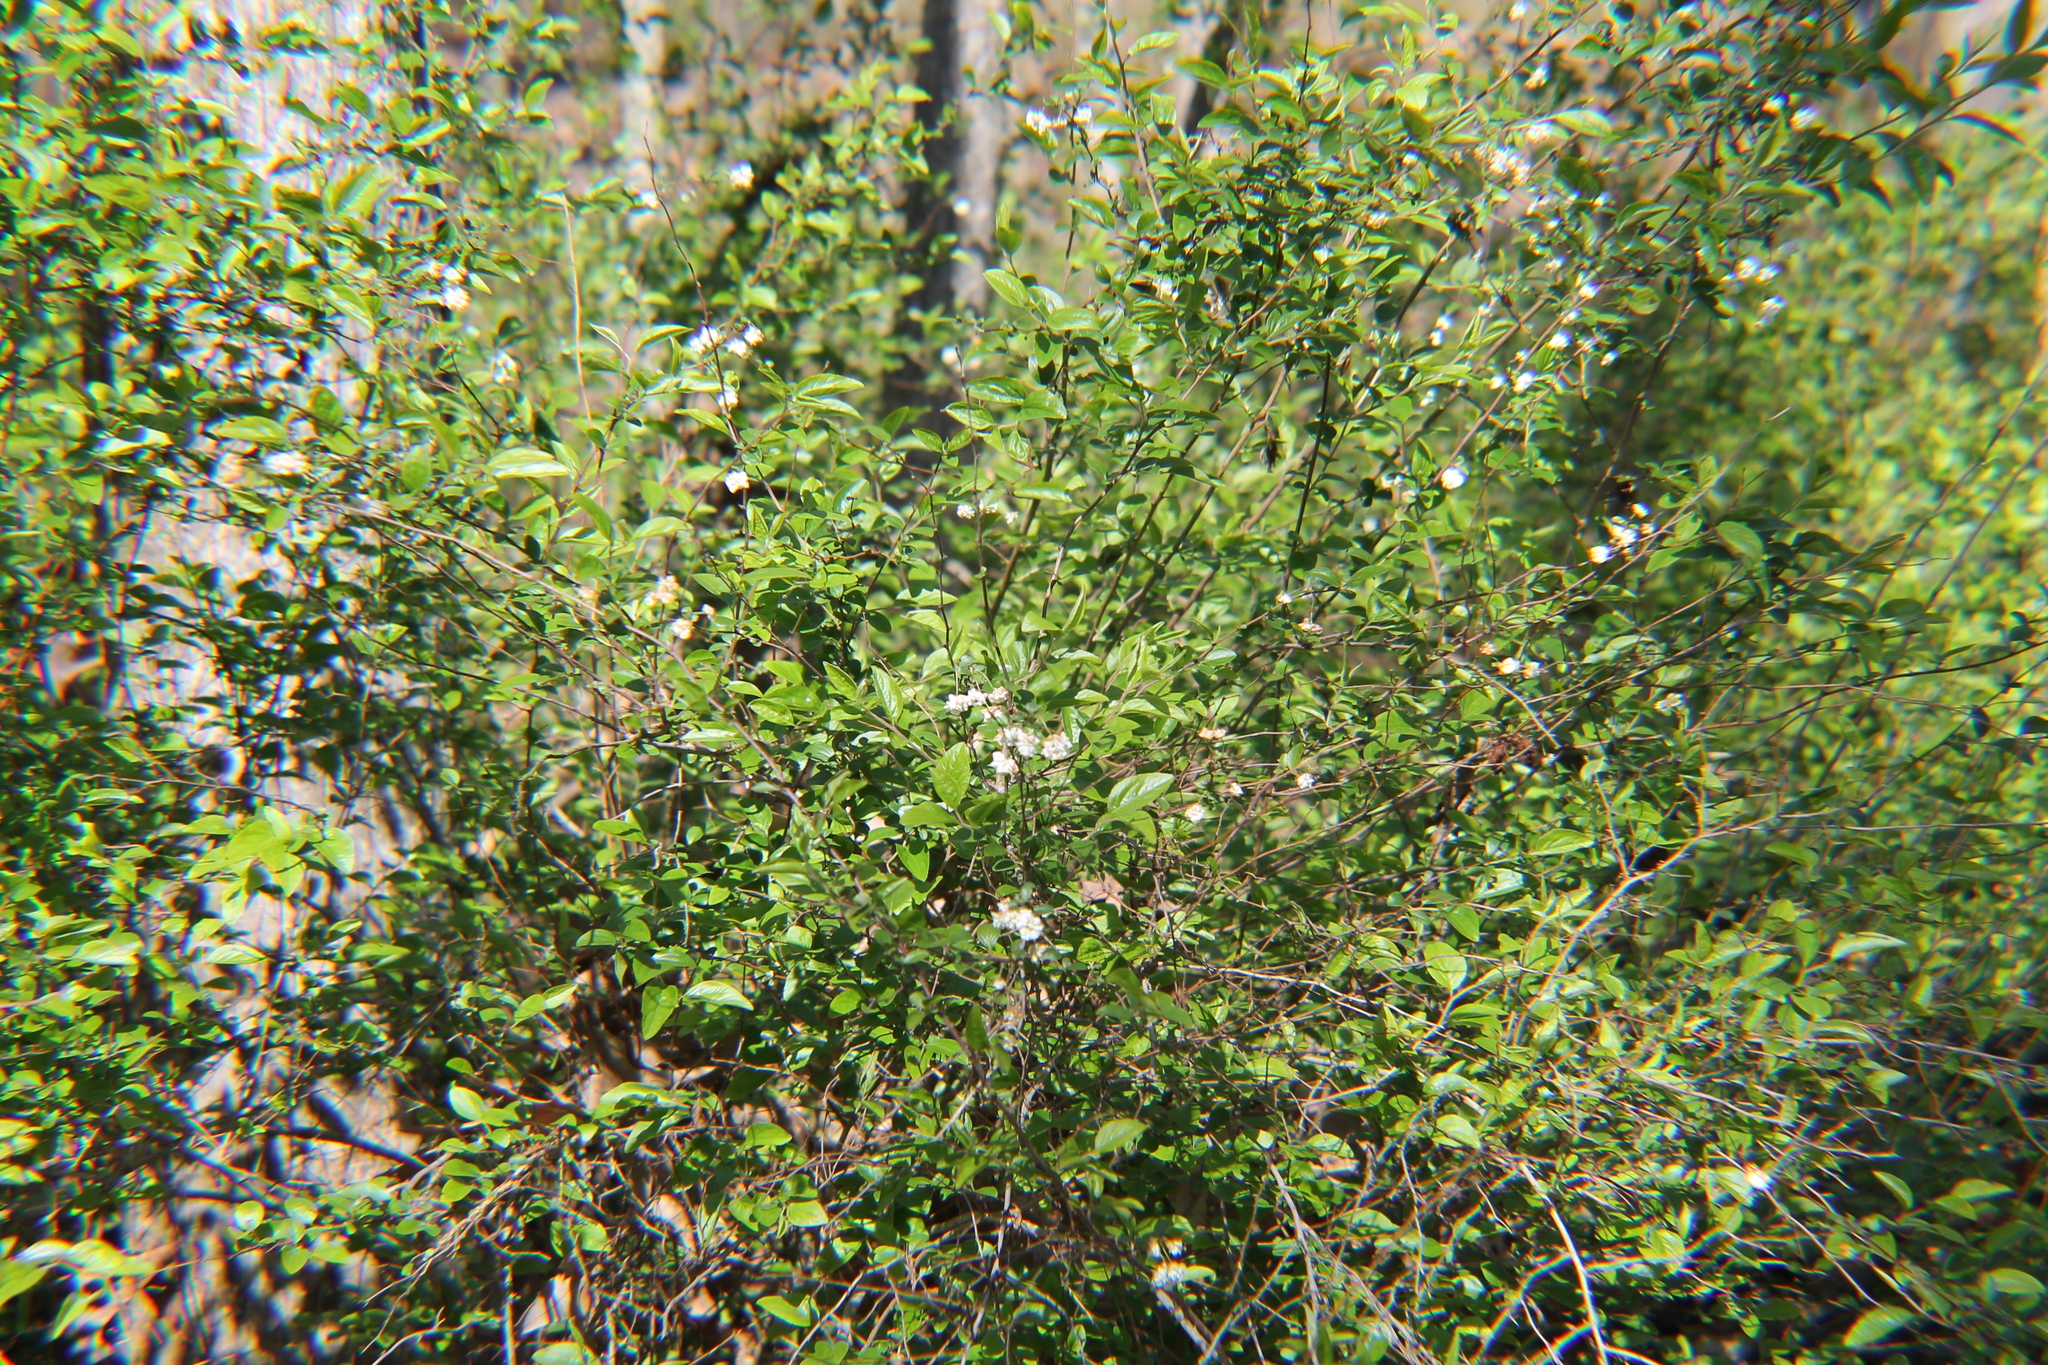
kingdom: Plantae
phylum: Tracheophyta
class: Magnoliopsida
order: Rosales
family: Rosaceae
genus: Spiraea
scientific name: Spiraea prunifolia
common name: Bridal-wreath spiraea
